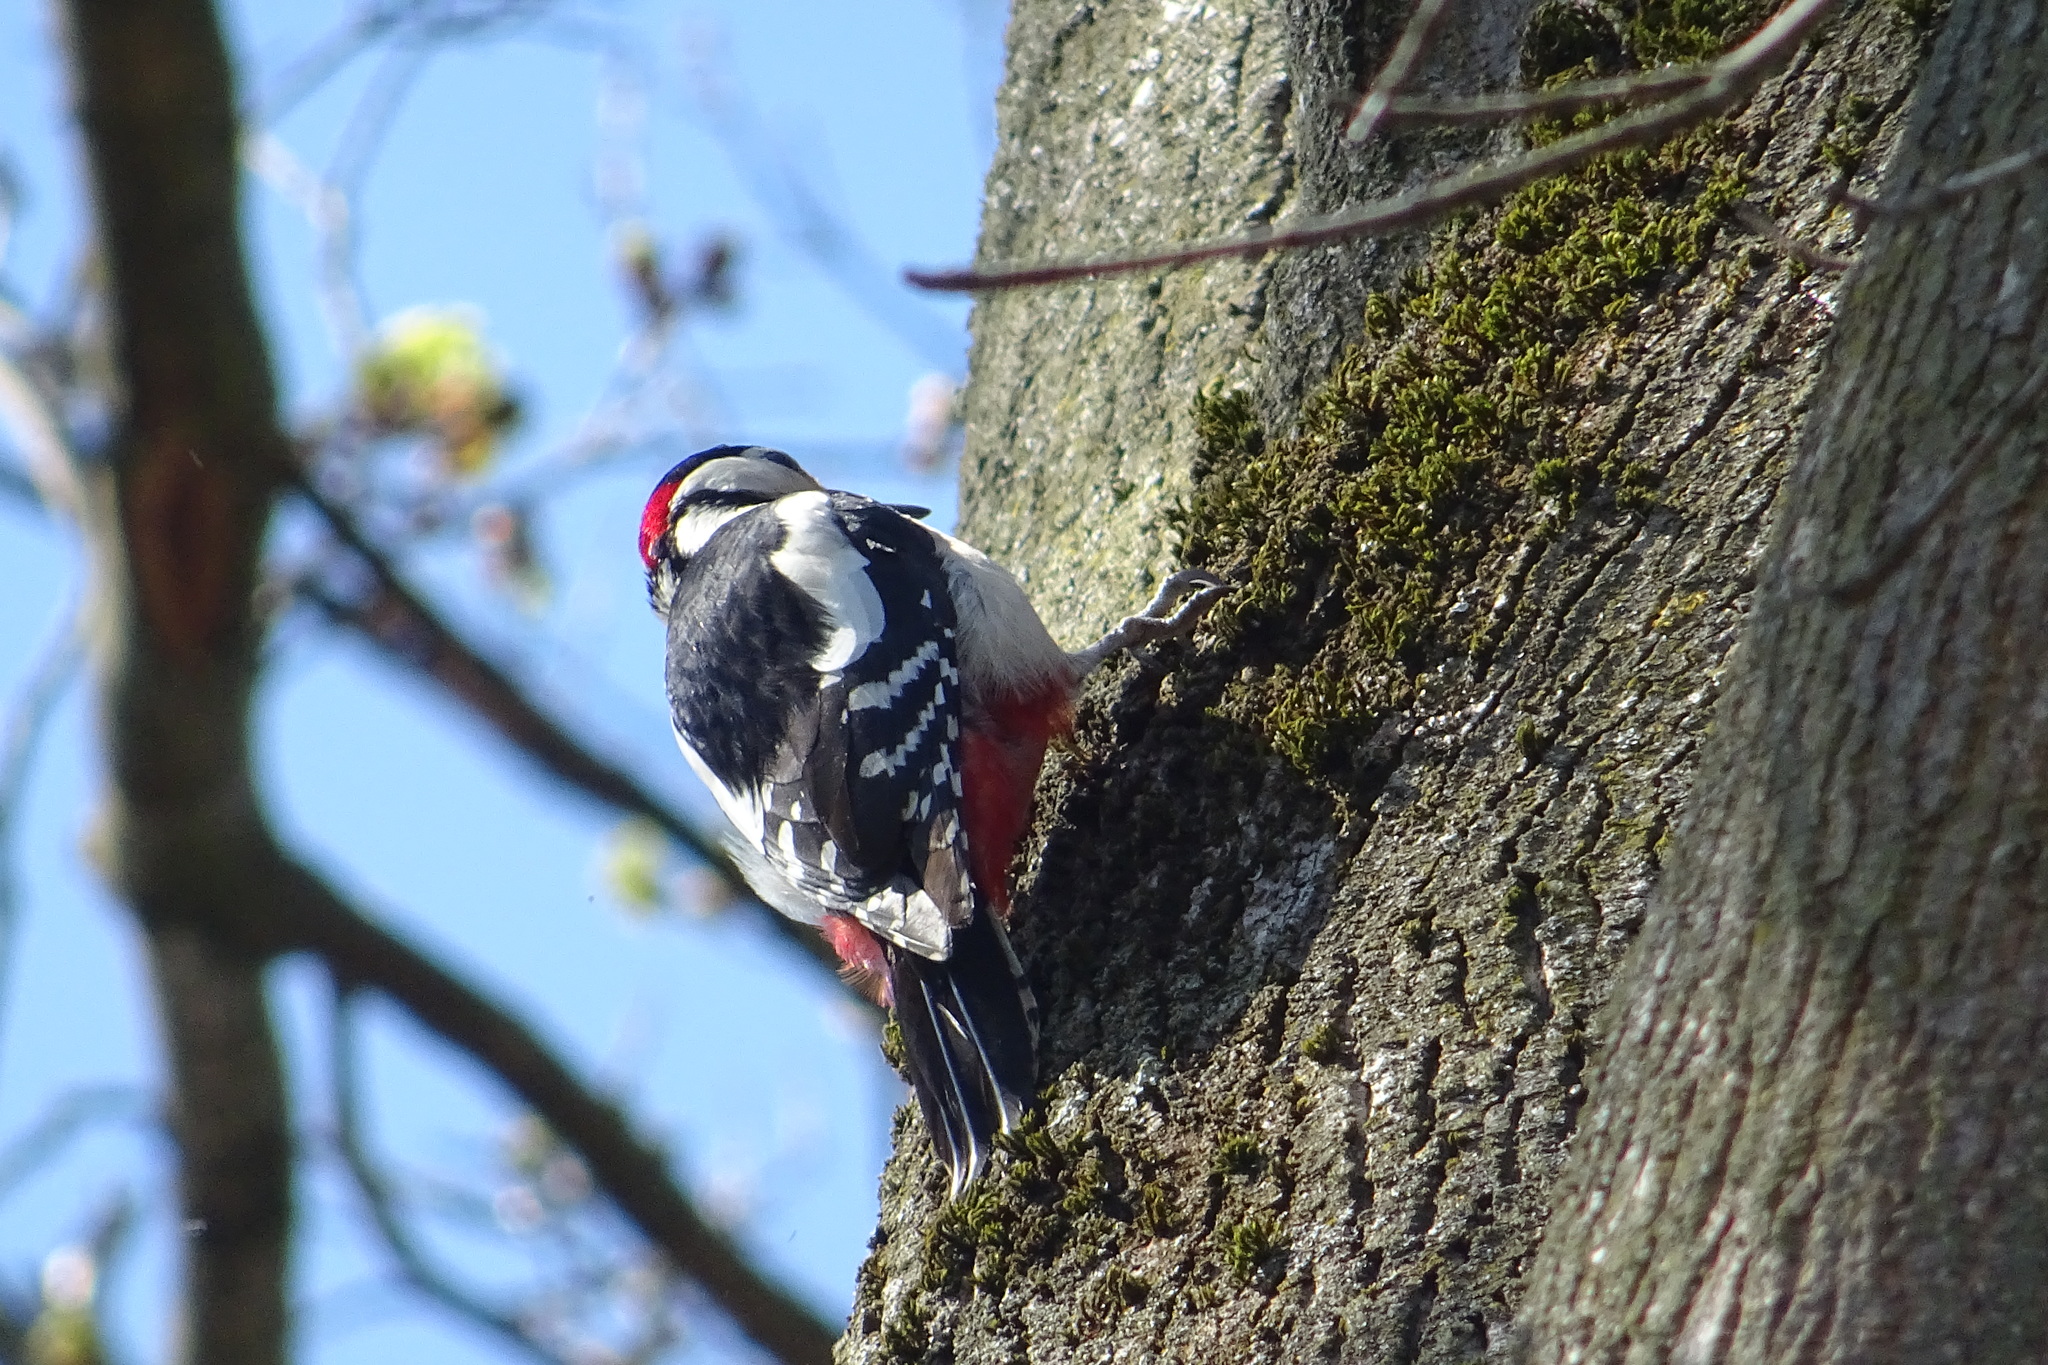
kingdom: Animalia
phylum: Chordata
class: Aves
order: Piciformes
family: Picidae
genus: Dendrocopos
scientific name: Dendrocopos major
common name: Great spotted woodpecker
